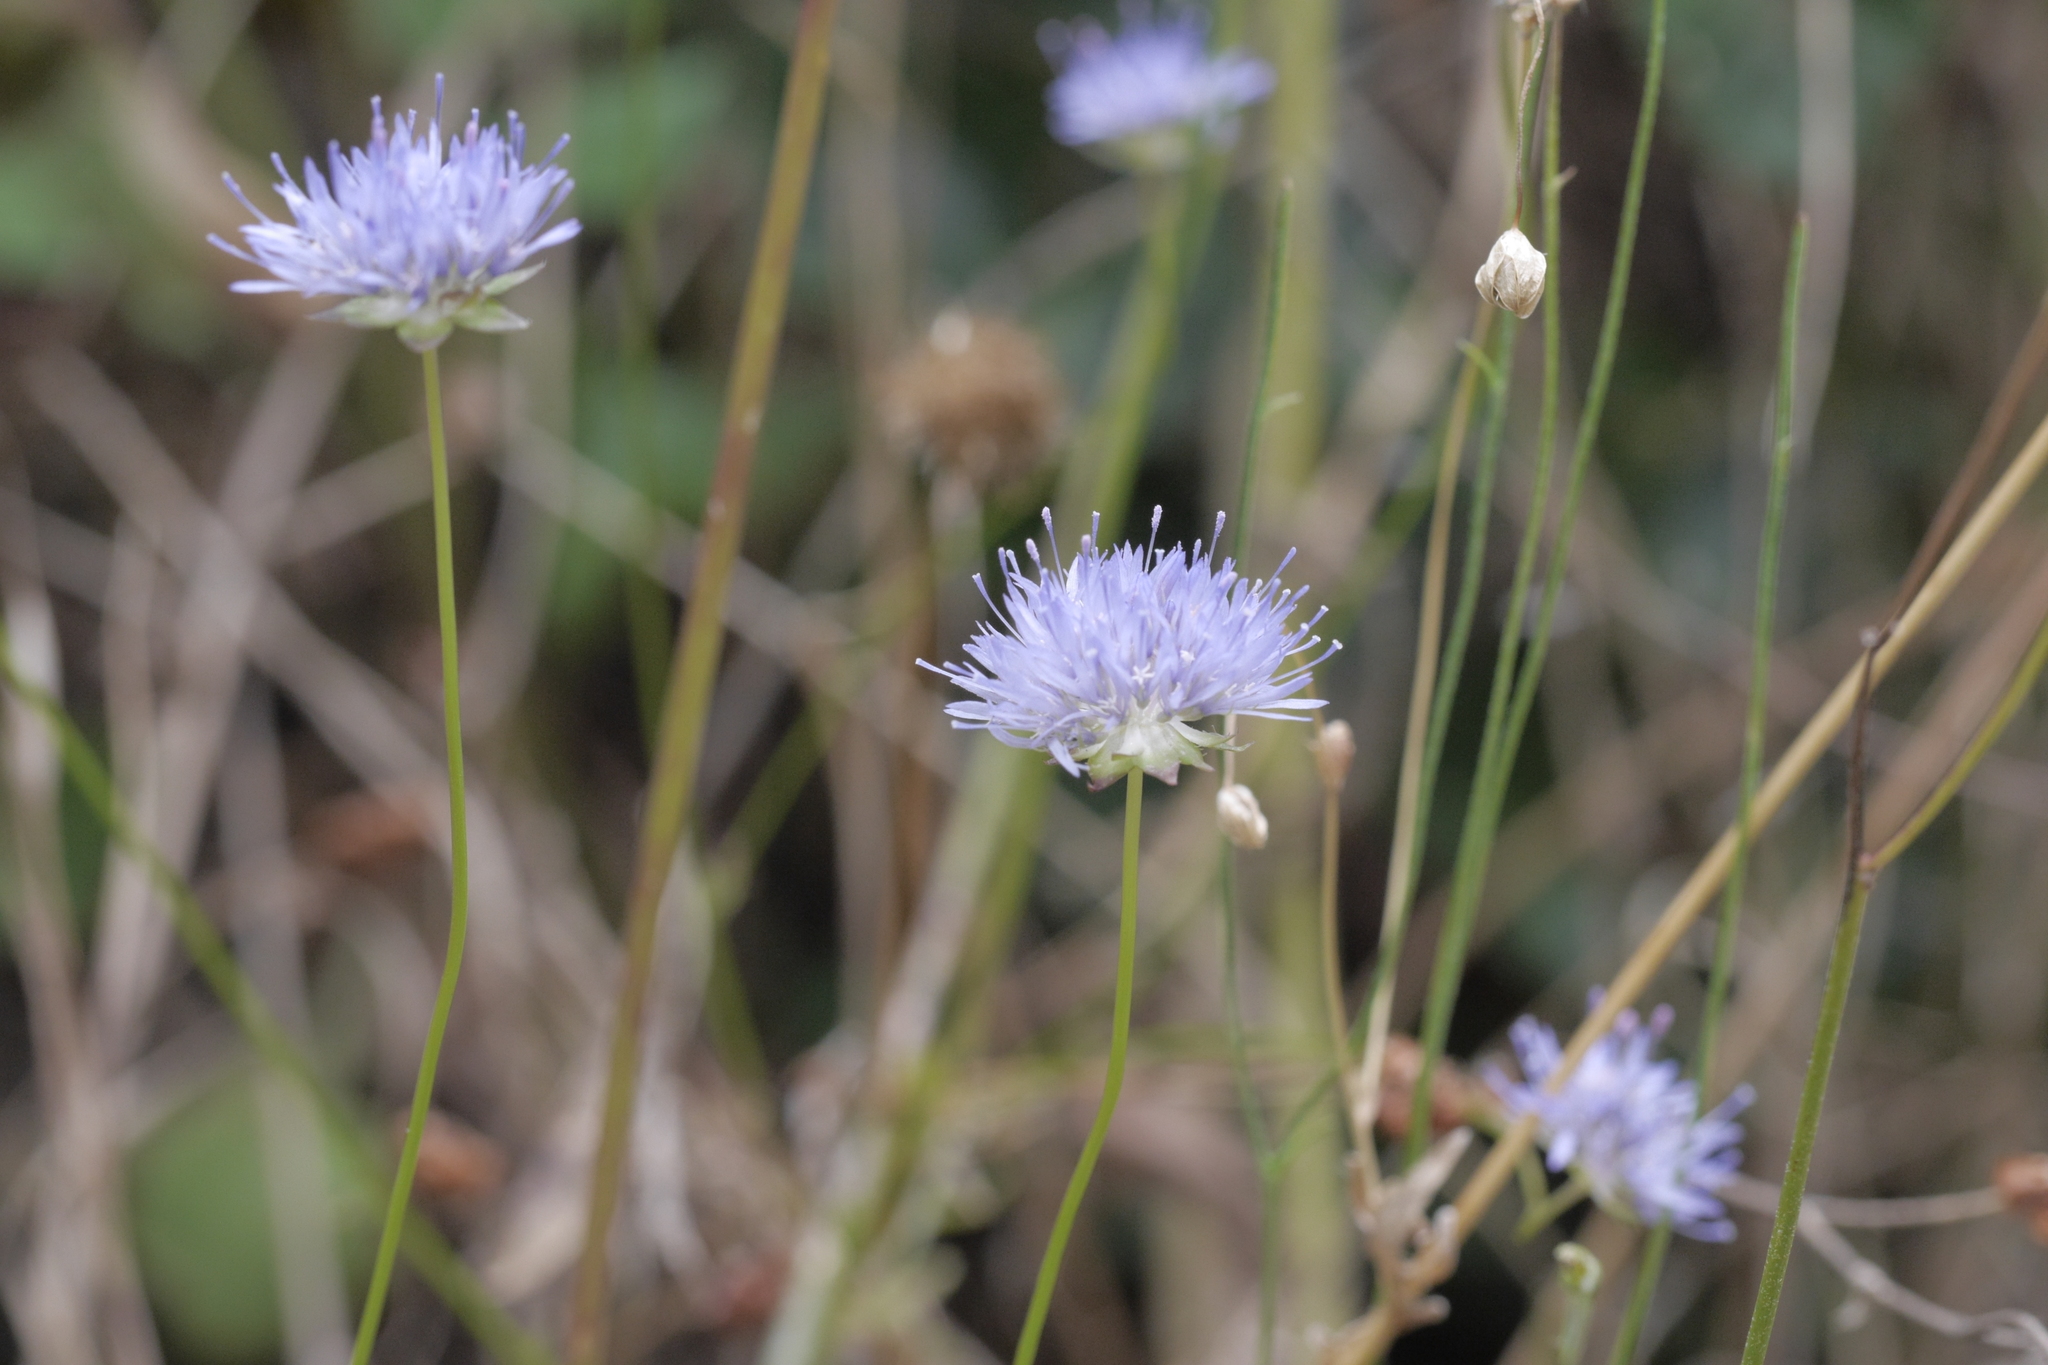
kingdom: Plantae
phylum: Tracheophyta
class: Magnoliopsida
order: Asterales
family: Campanulaceae
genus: Jasione
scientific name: Jasione montana
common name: Sheep's-bit
